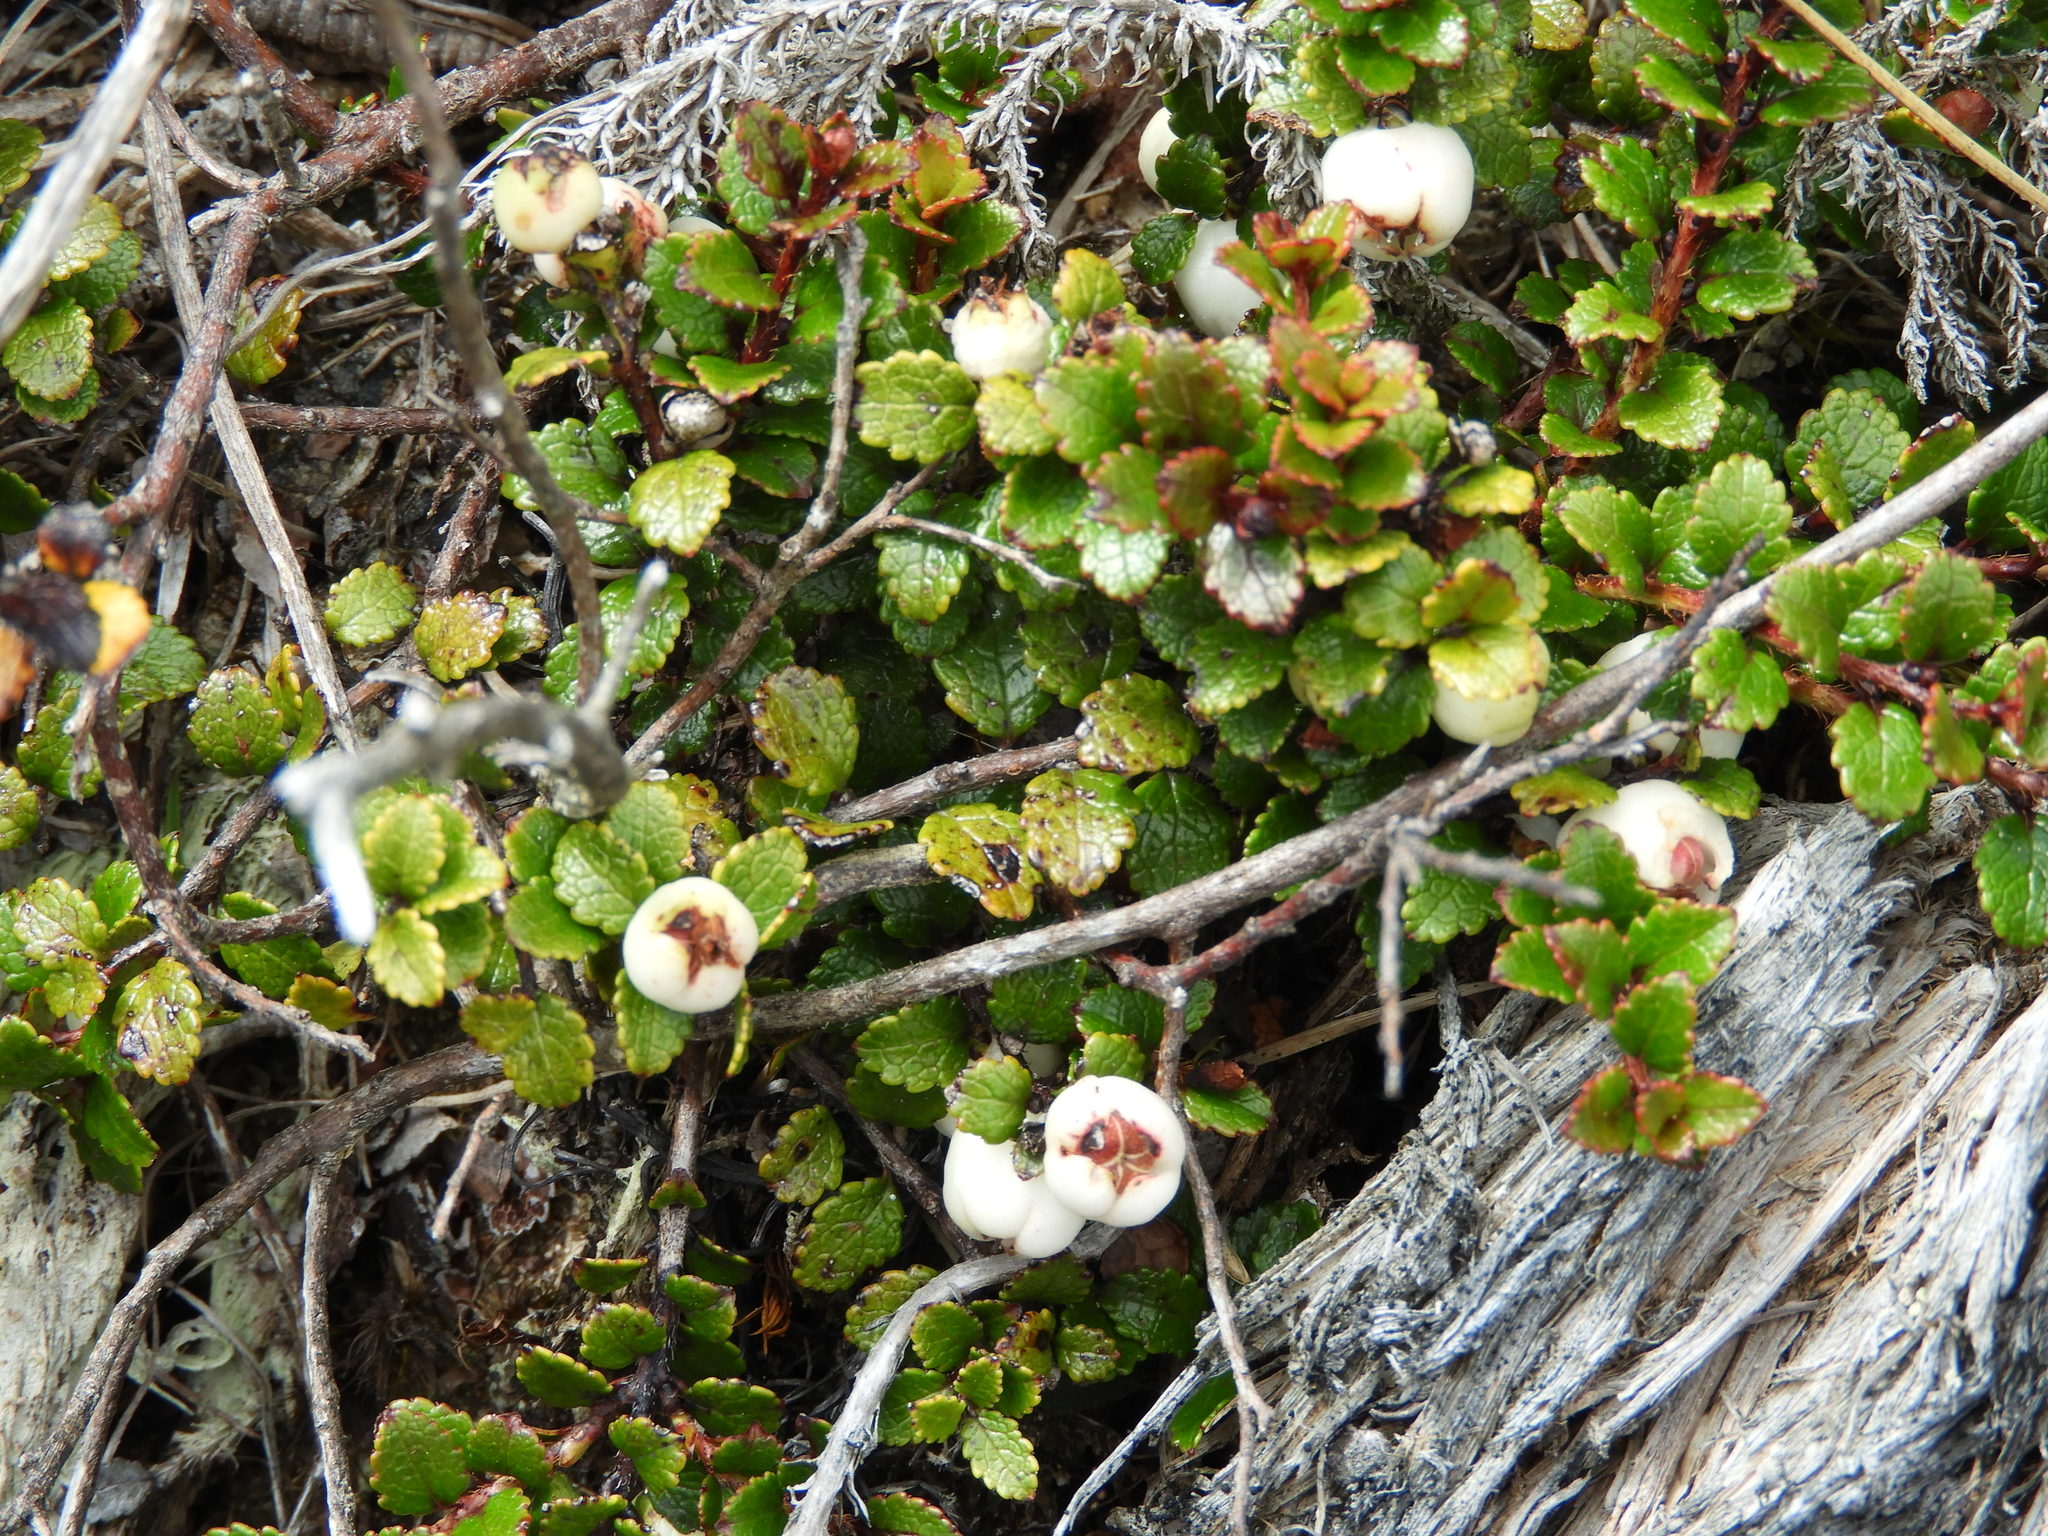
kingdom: Plantae
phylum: Tracheophyta
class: Magnoliopsida
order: Ericales
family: Ericaceae
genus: Gaultheria
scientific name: Gaultheria depressa
